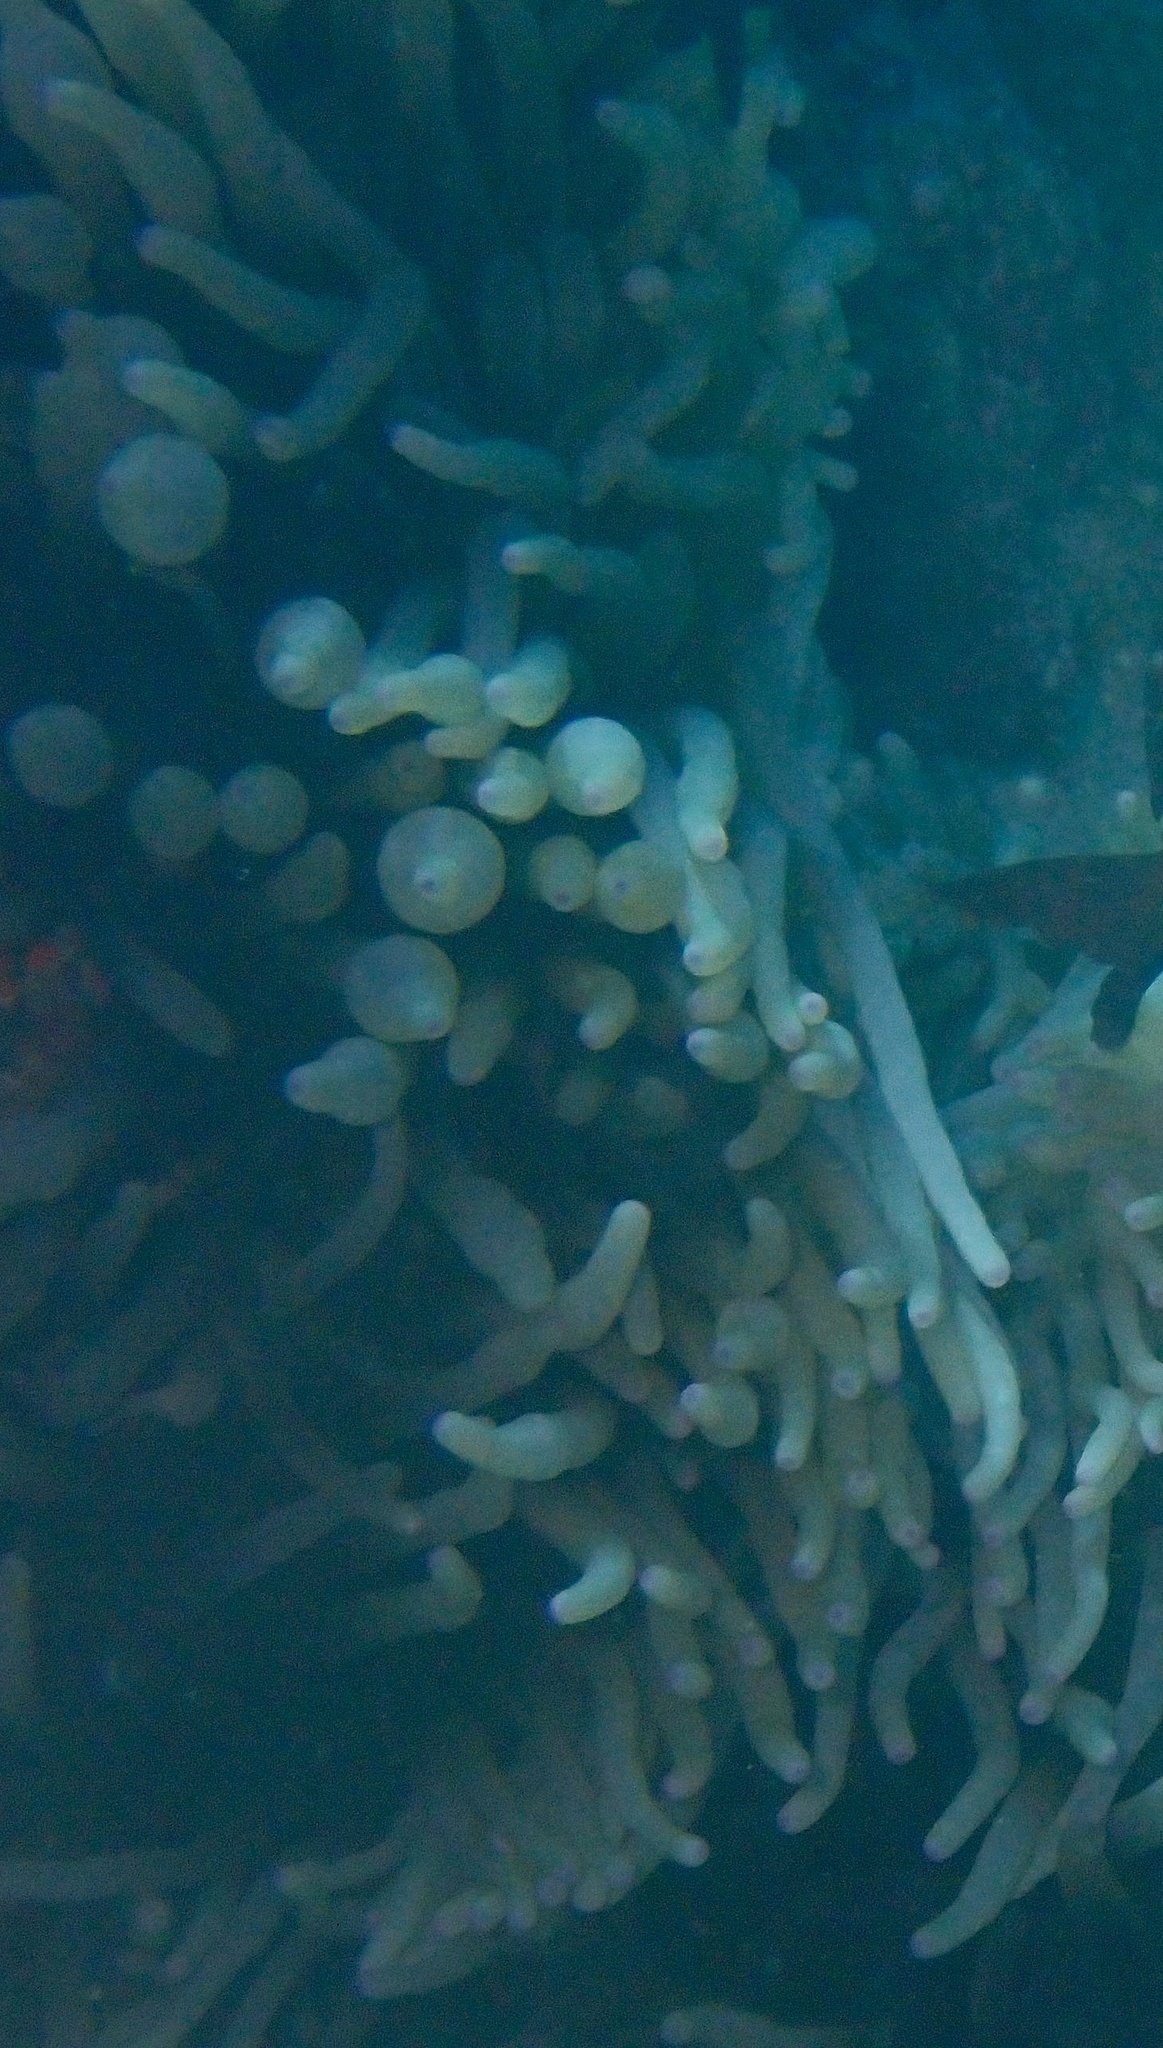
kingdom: Animalia
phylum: Cnidaria
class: Anthozoa
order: Actiniaria
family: Actiniidae
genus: Entacmaea
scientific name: Entacmaea quadricolor
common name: Bulb tentacle sea anemone
